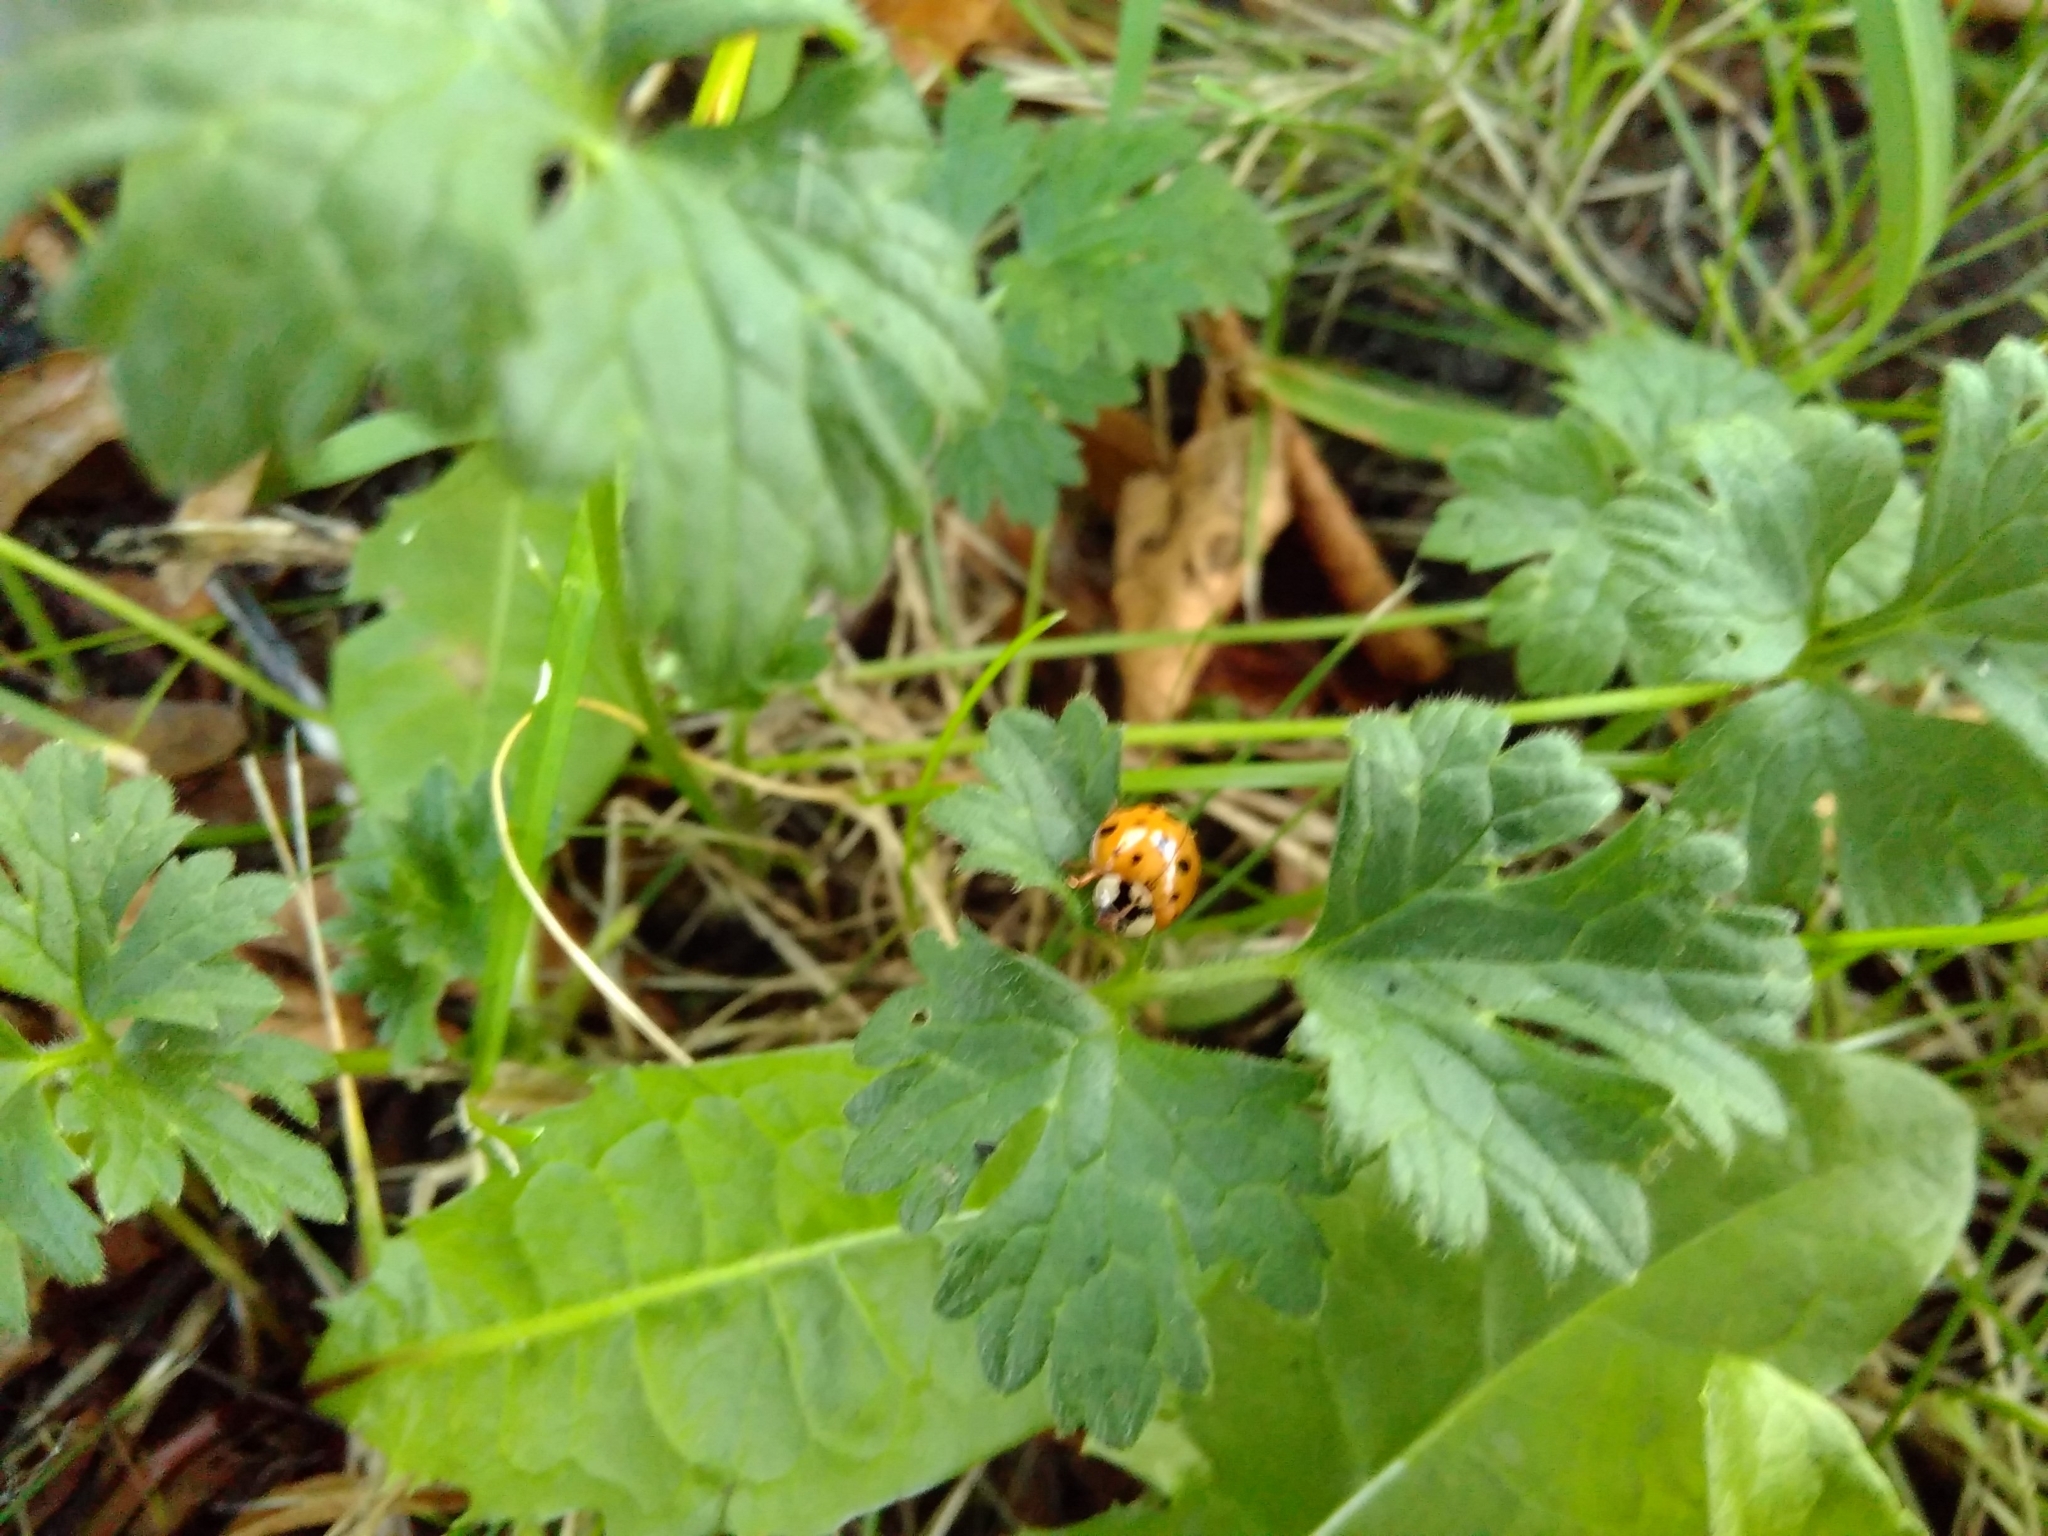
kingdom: Animalia
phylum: Arthropoda
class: Insecta
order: Coleoptera
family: Coccinellidae
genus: Harmonia
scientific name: Harmonia axyridis
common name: Harlequin ladybird
